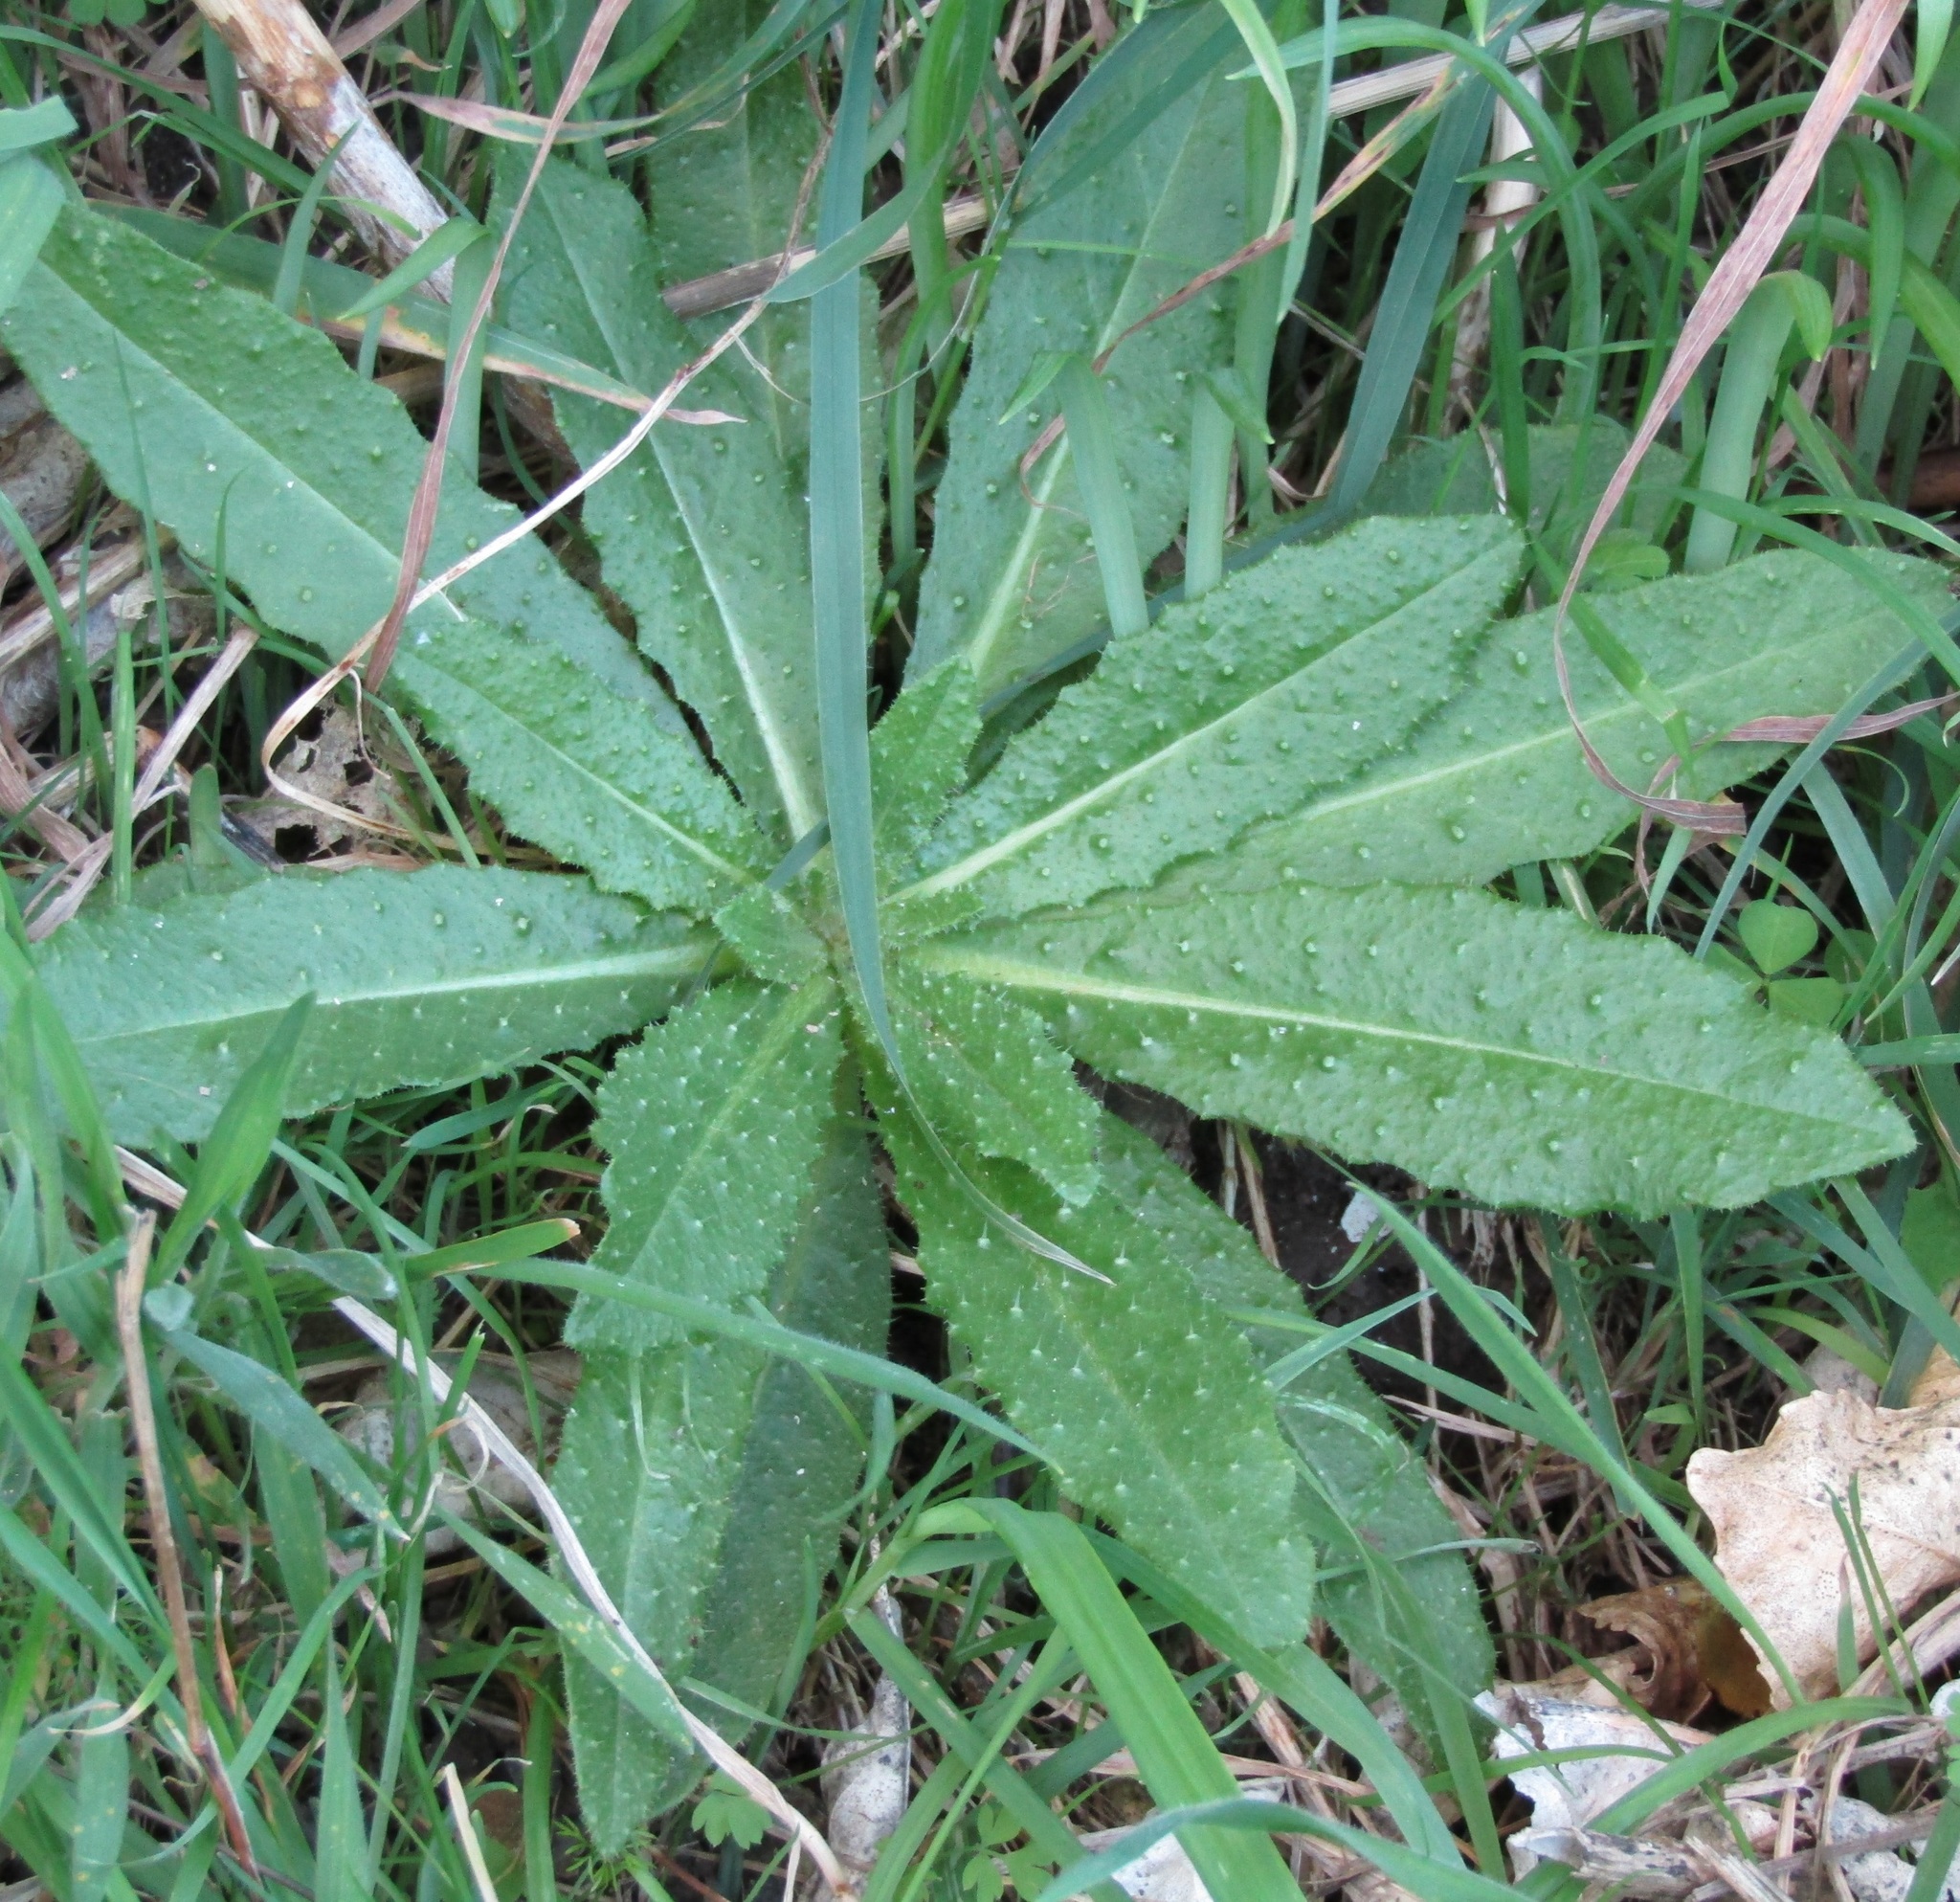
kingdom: Plantae
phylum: Tracheophyta
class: Magnoliopsida
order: Asterales
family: Asteraceae
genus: Helminthotheca
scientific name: Helminthotheca echioides
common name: Ox-tongue
